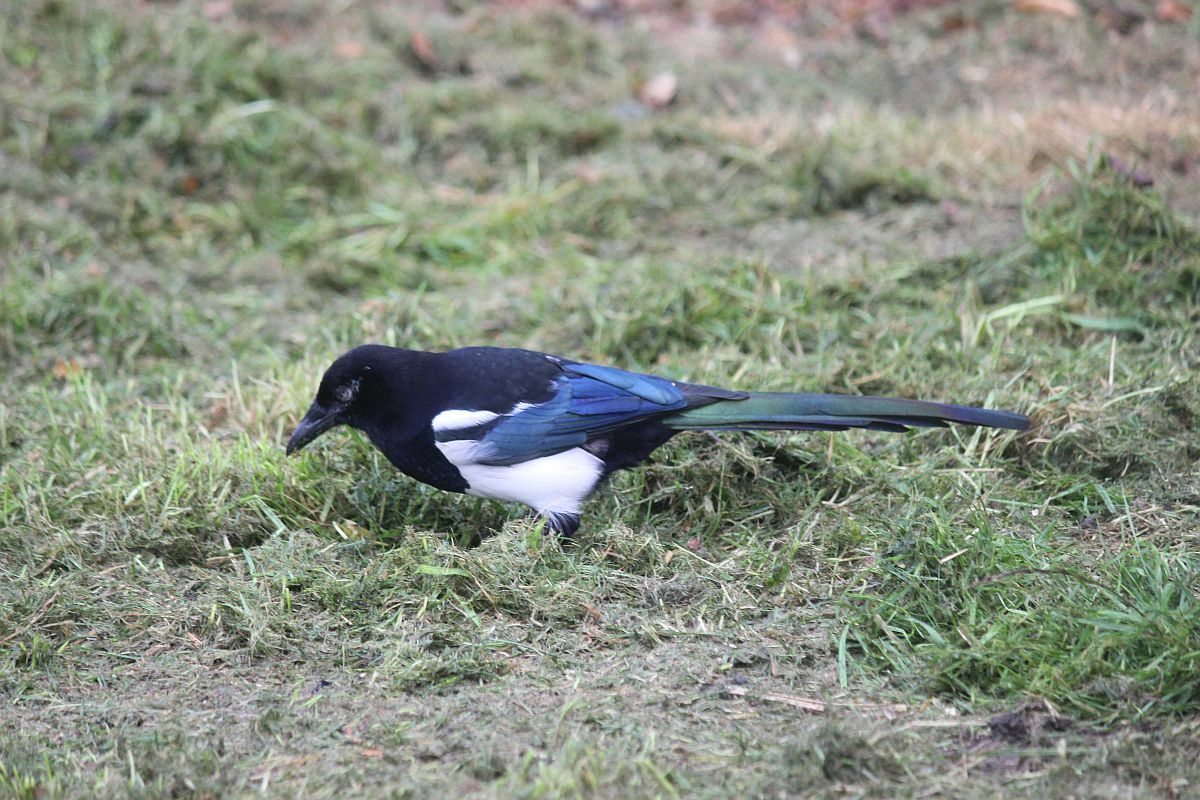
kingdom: Animalia
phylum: Chordata
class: Aves
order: Passeriformes
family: Corvidae
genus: Pica
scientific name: Pica pica
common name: Eurasian magpie
